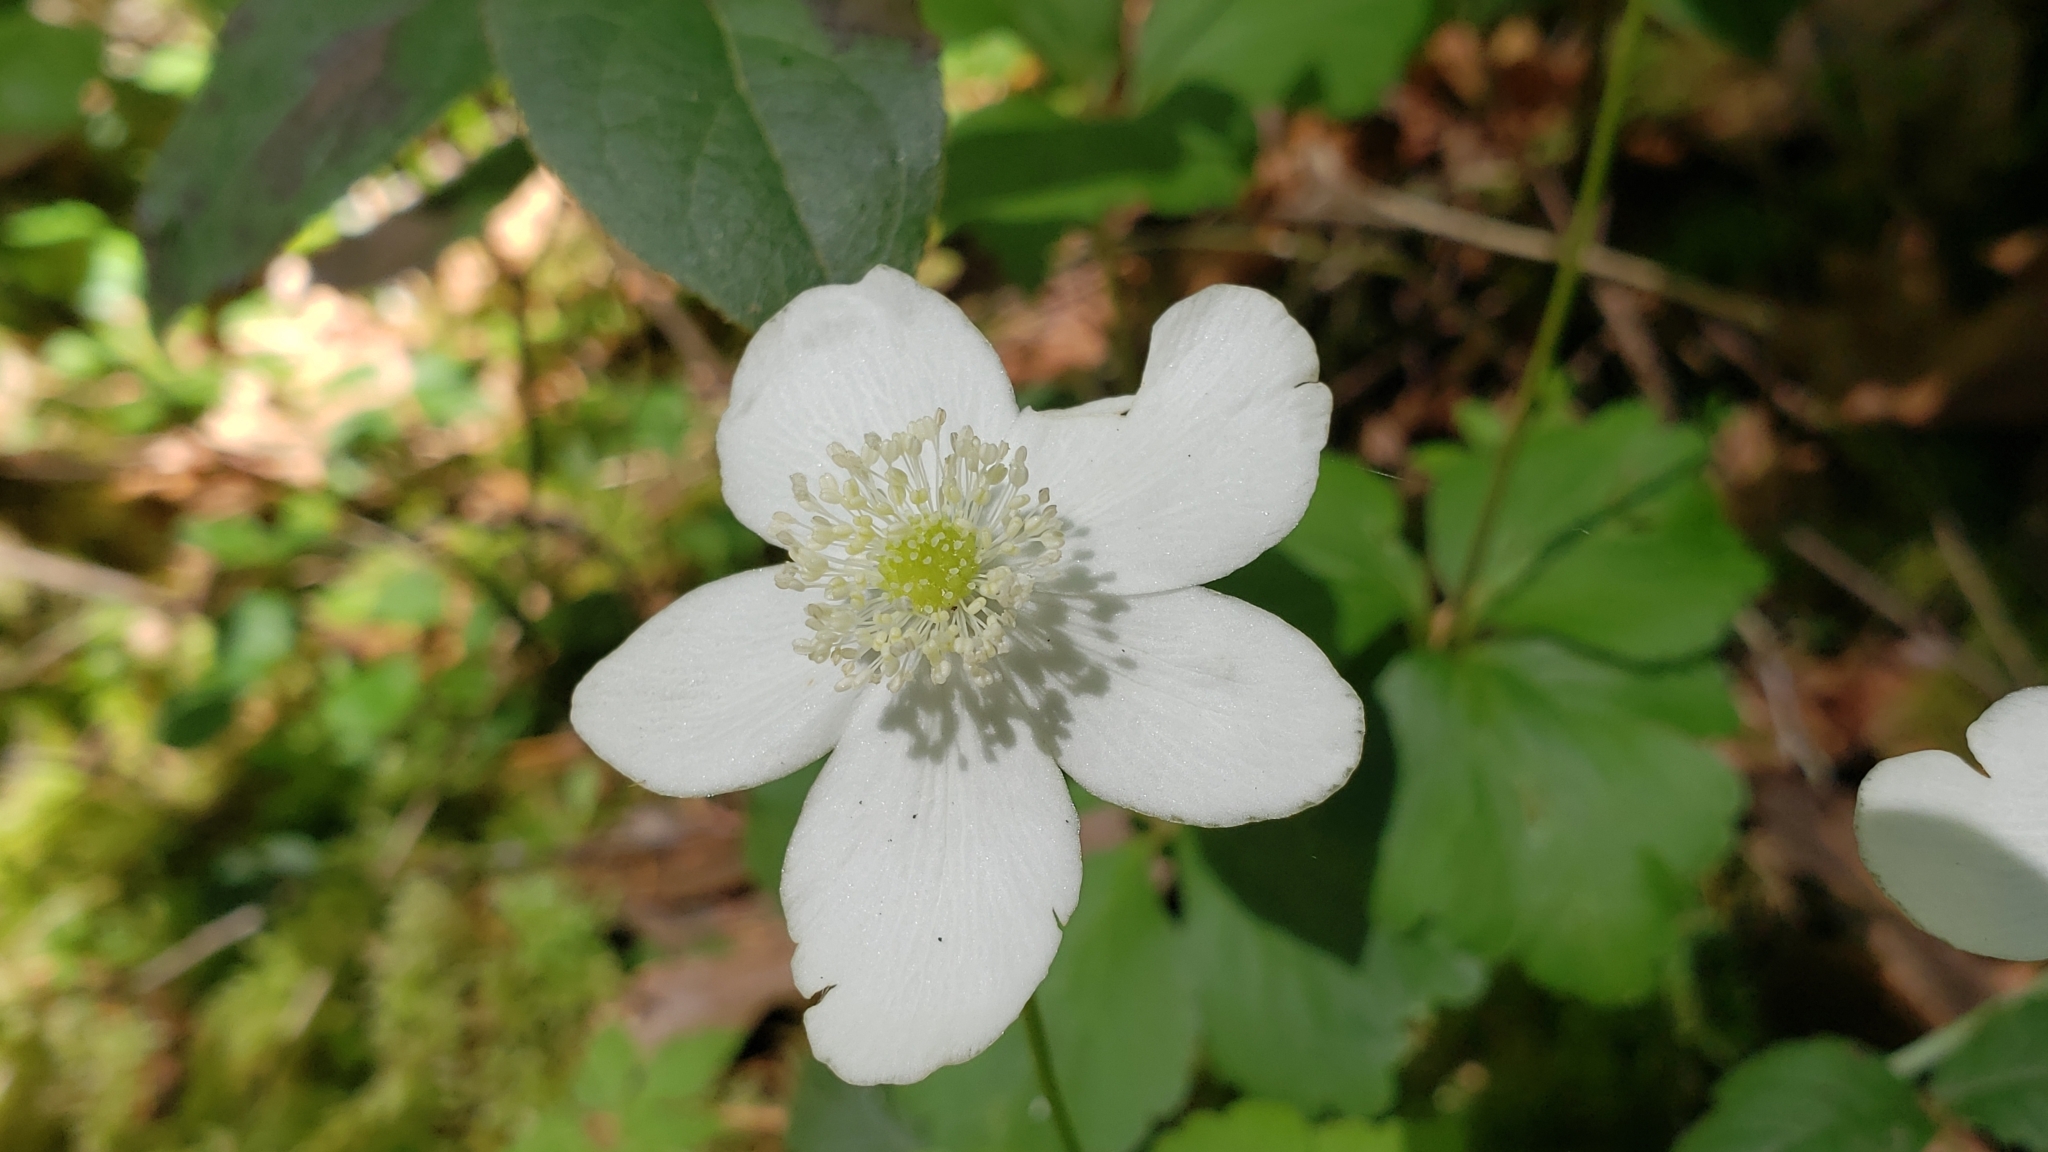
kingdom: Plantae
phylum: Tracheophyta
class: Magnoliopsida
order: Ranunculales
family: Ranunculaceae
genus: Anemonastrum
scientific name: Anemonastrum deltoideum
